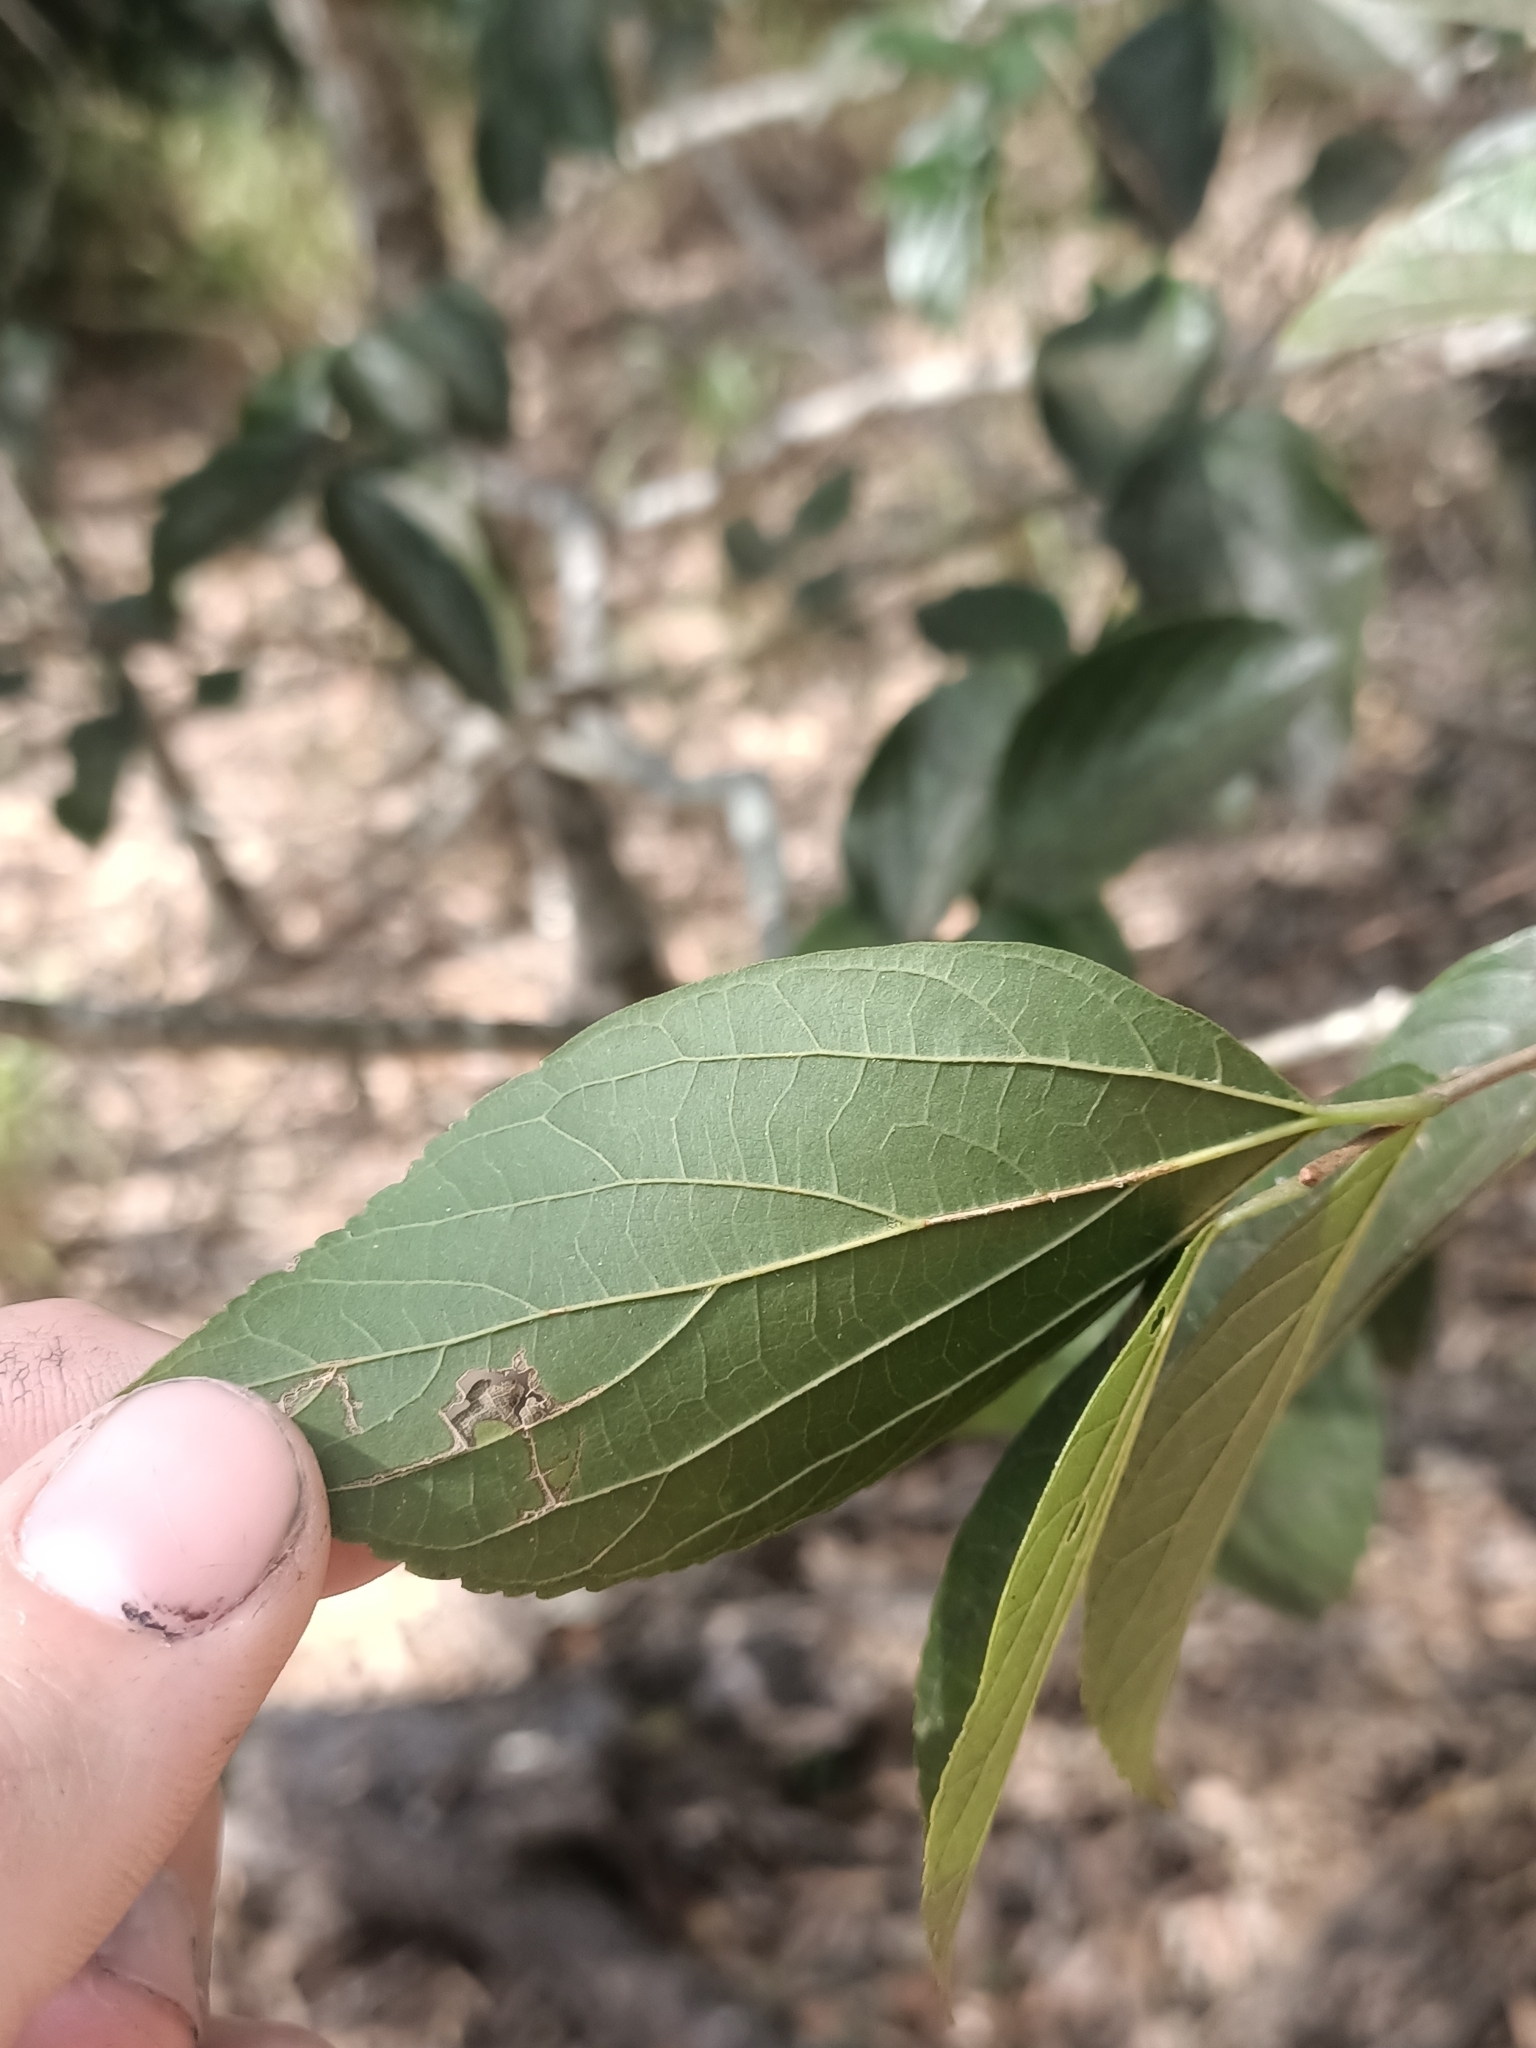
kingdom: Plantae
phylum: Tracheophyta
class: Magnoliopsida
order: Rosales
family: Cannabaceae
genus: Celtis
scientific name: Celtis sinensis
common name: Chinese hackberry
